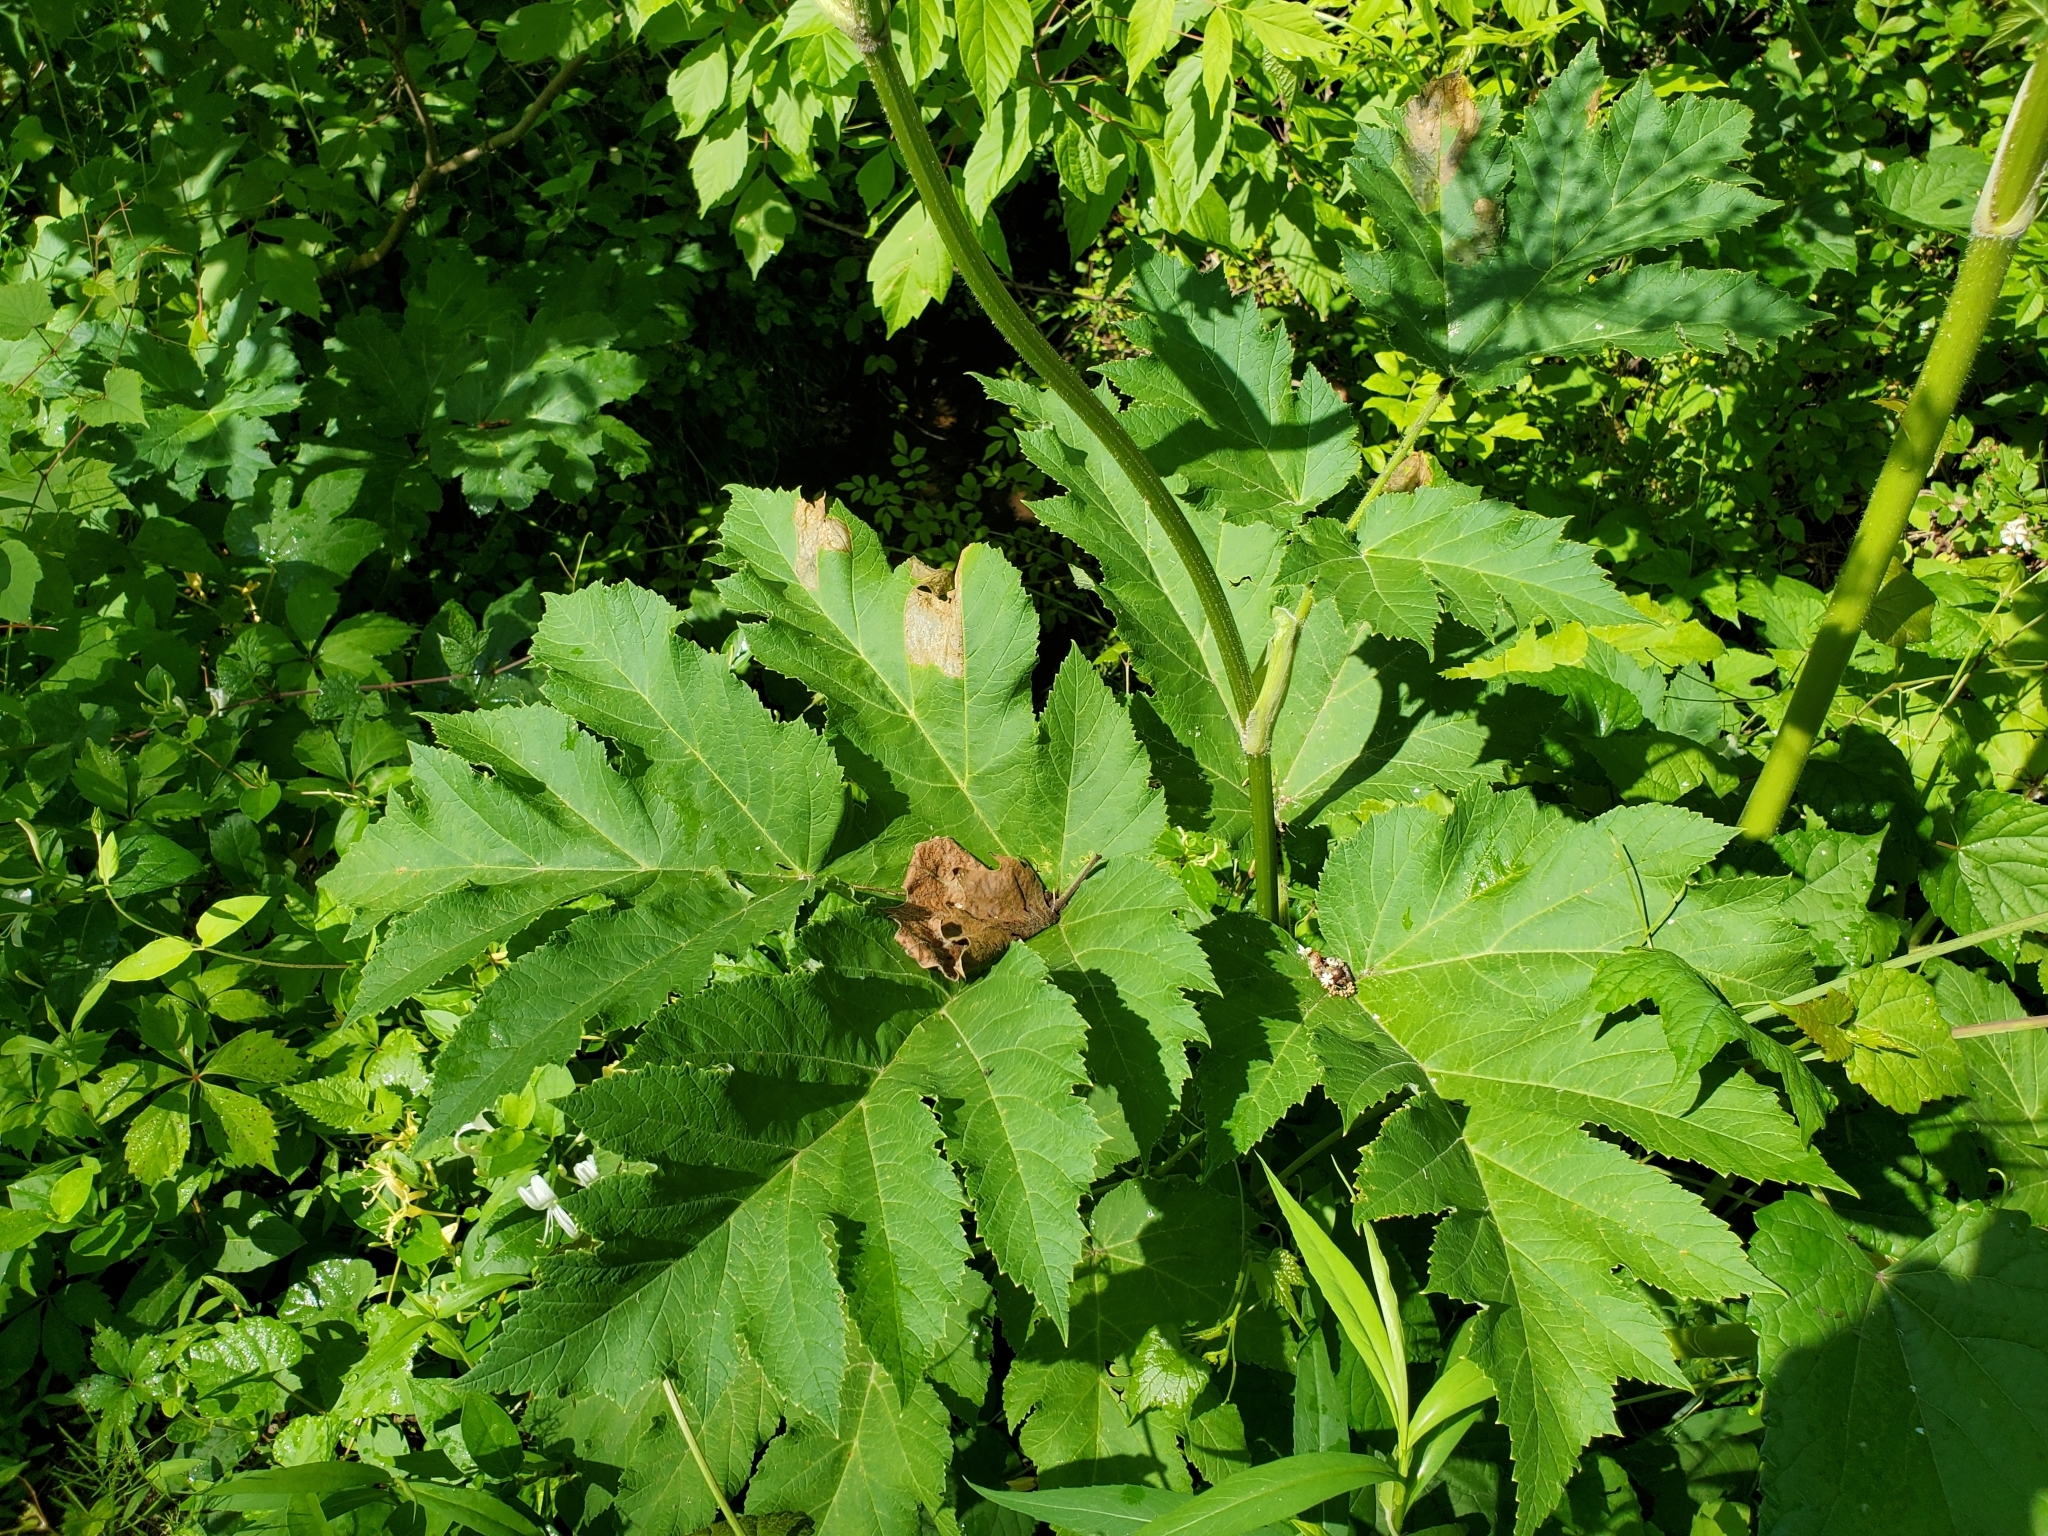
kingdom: Plantae
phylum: Tracheophyta
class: Magnoliopsida
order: Apiales
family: Apiaceae
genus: Heracleum
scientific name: Heracleum maximum
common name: American cow parsnip
